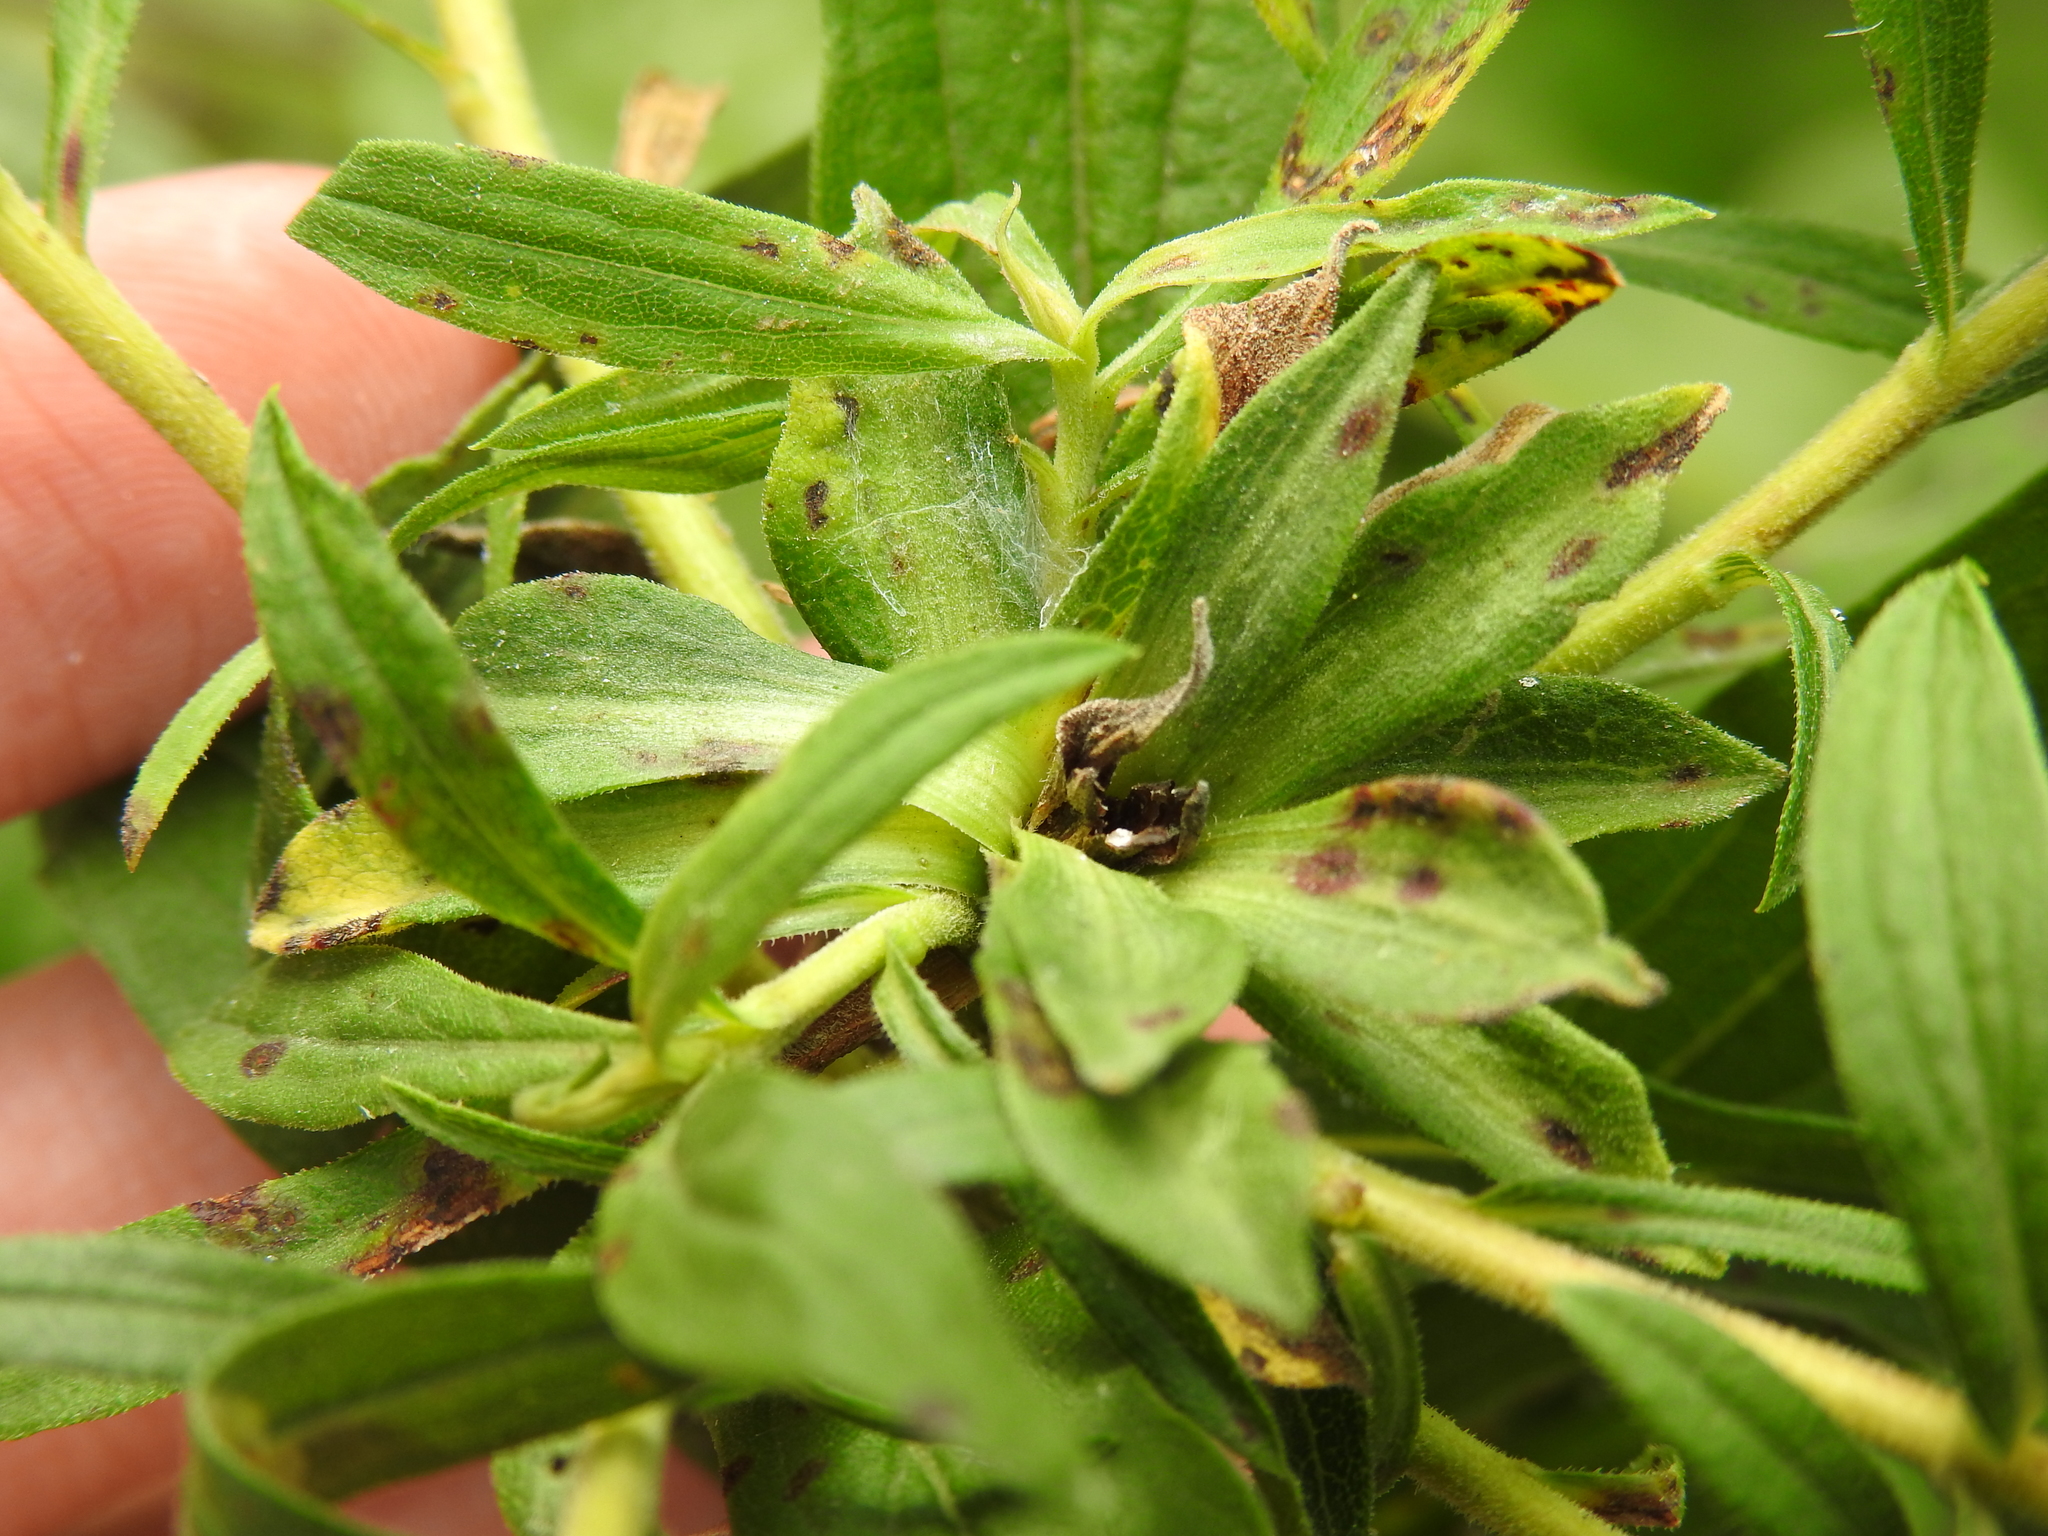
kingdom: Animalia
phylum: Arthropoda
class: Insecta
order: Diptera
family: Cecidomyiidae
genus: Asphondylia
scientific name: Asphondylia solidaginis
